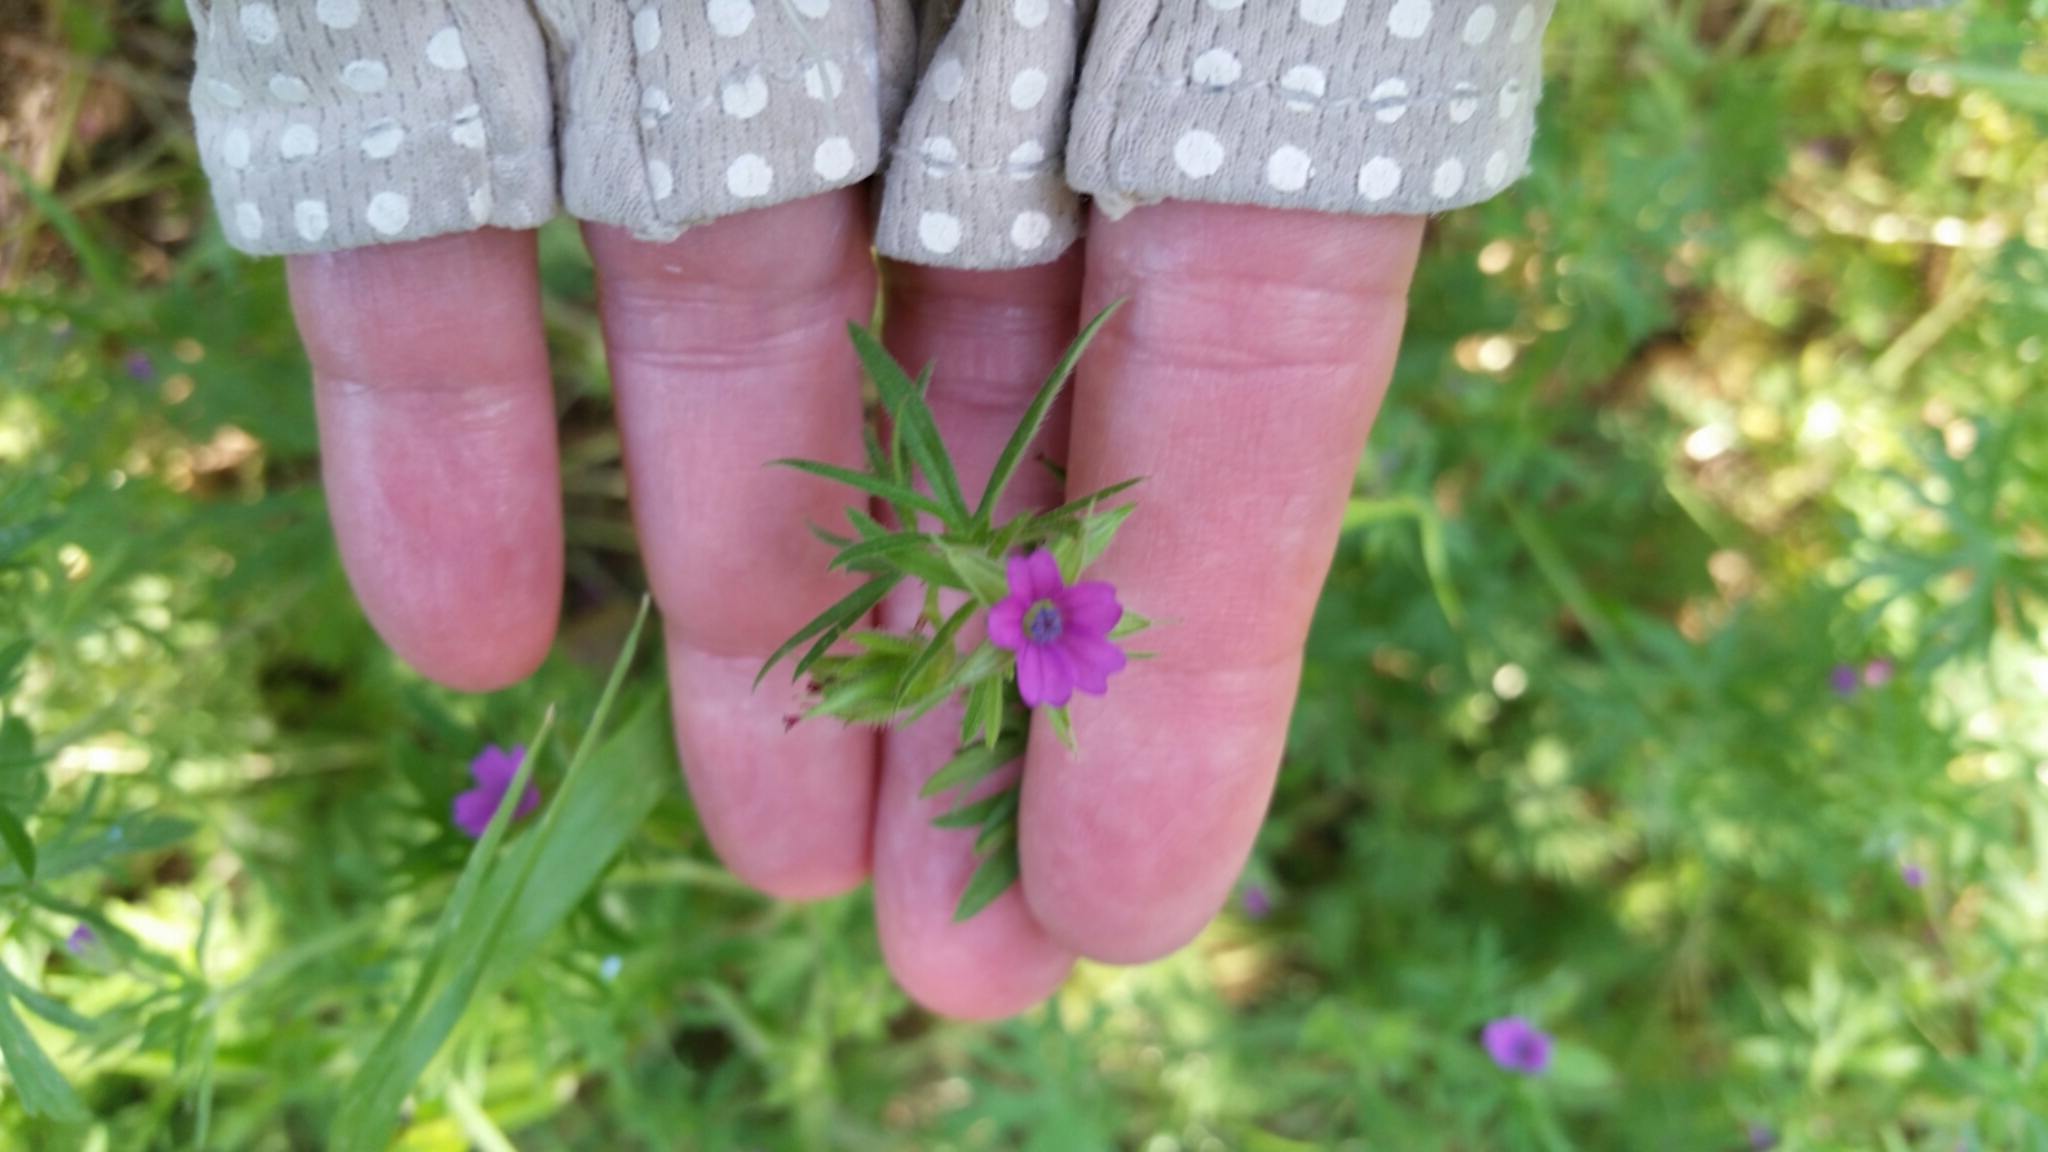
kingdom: Plantae
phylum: Tracheophyta
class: Magnoliopsida
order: Geraniales
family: Geraniaceae
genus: Geranium
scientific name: Geranium dissectum
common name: Cut-leaved crane's-bill
